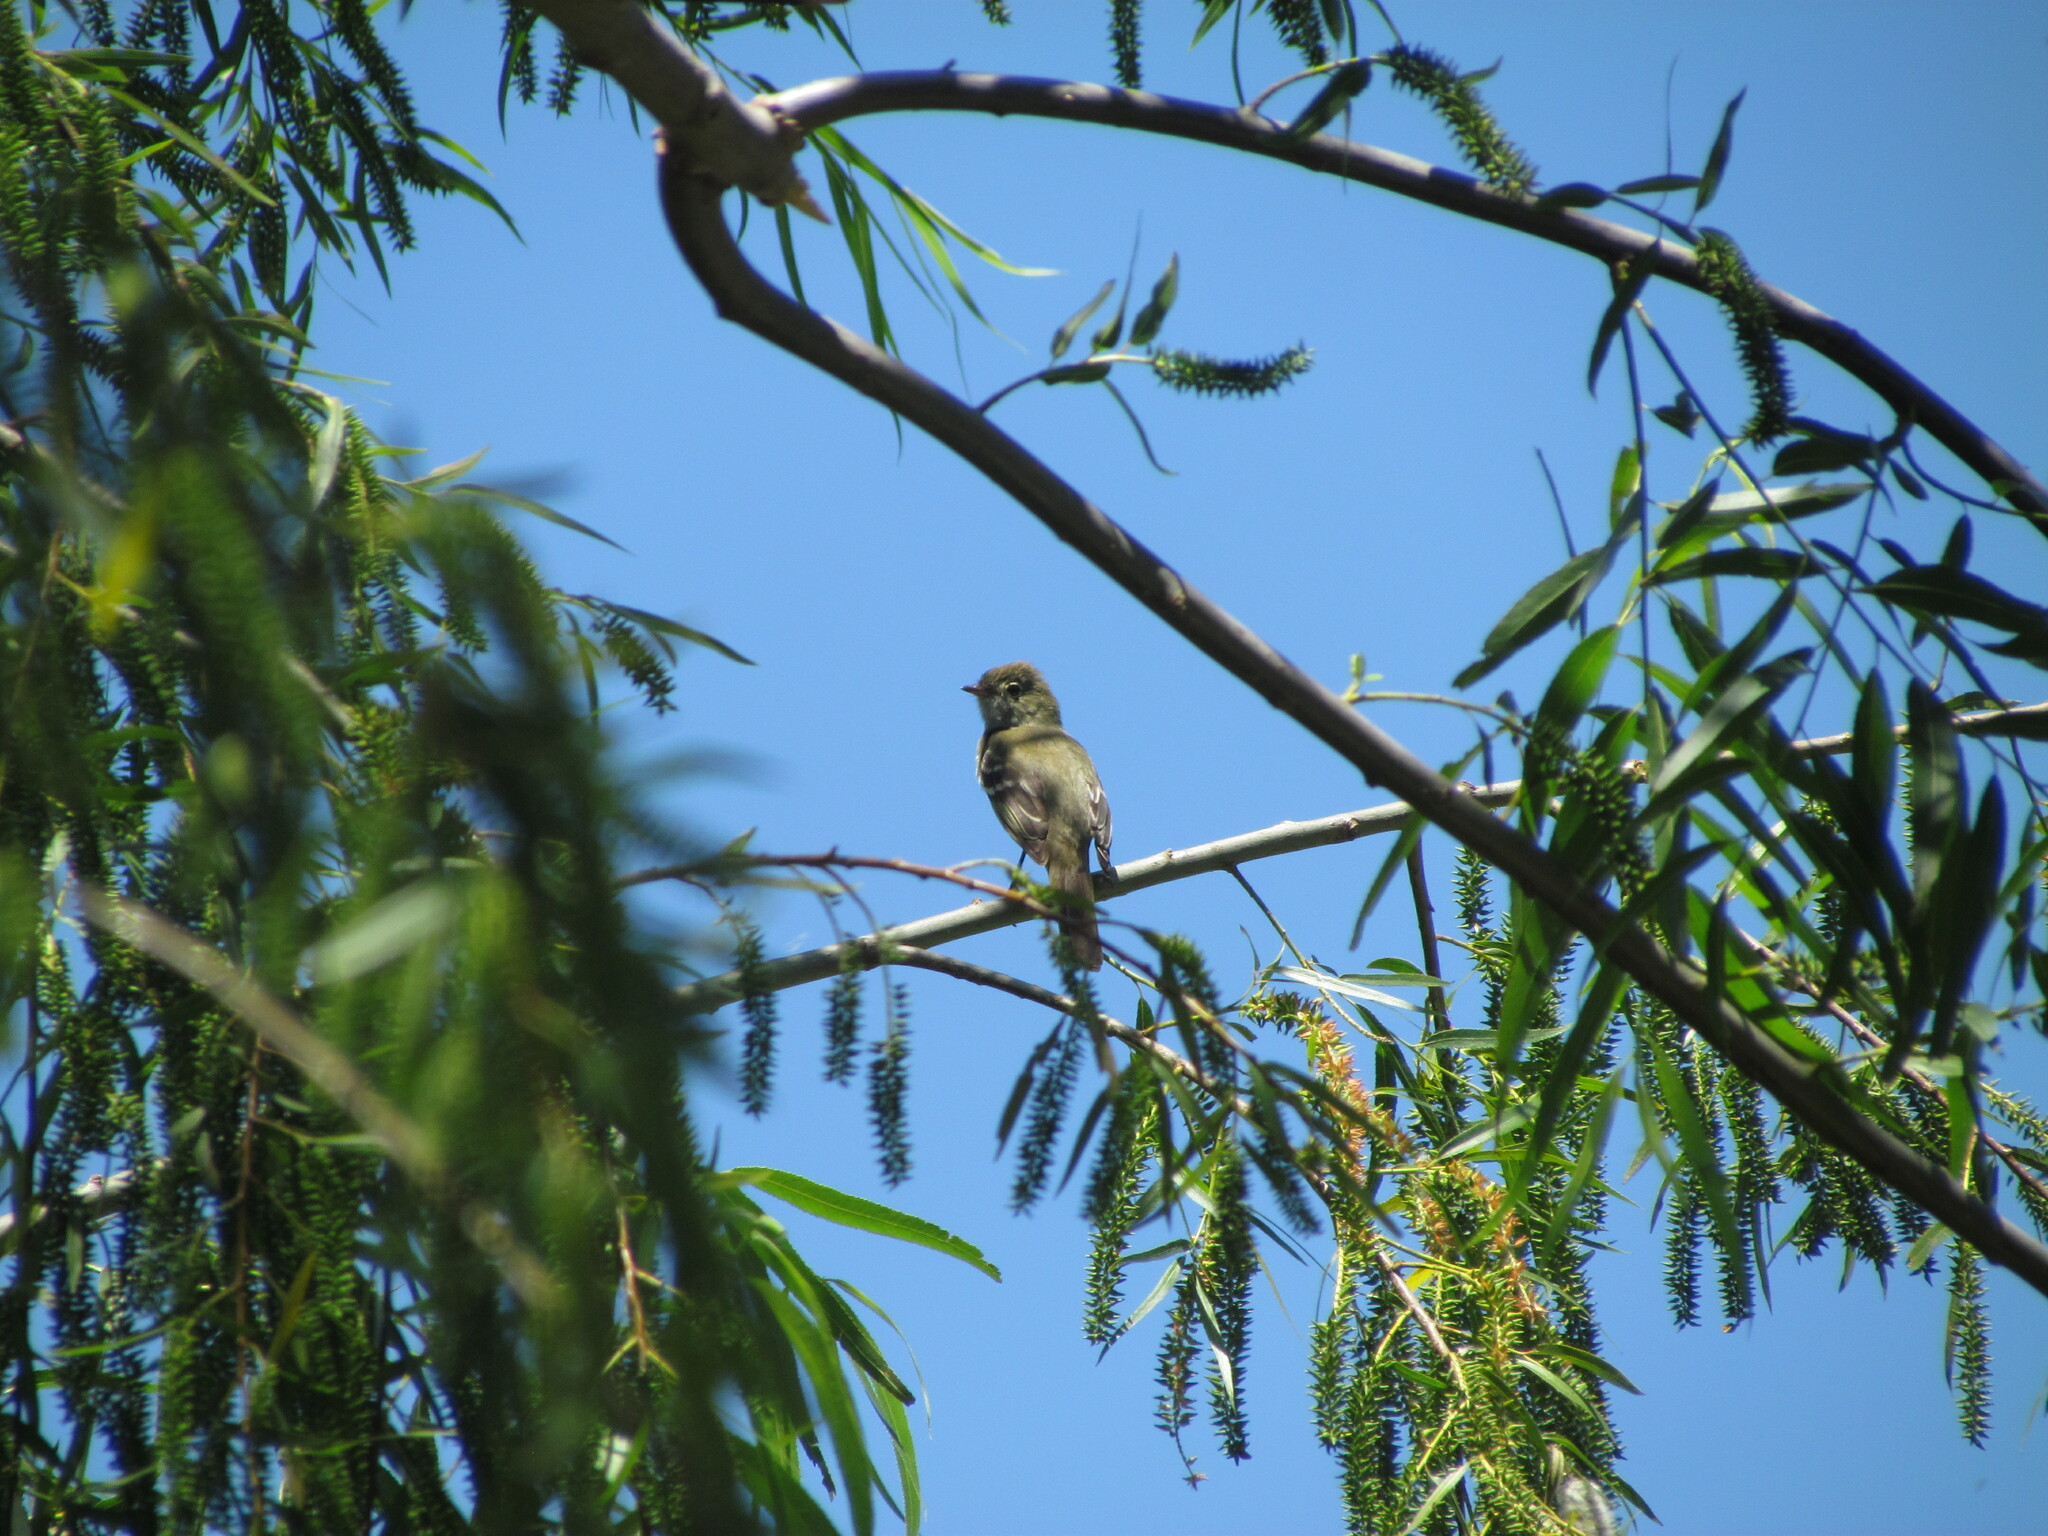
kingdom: Animalia
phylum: Chordata
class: Aves
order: Passeriformes
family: Tyrannidae
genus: Elaenia
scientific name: Elaenia parvirostris
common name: Small-billed elaenia
